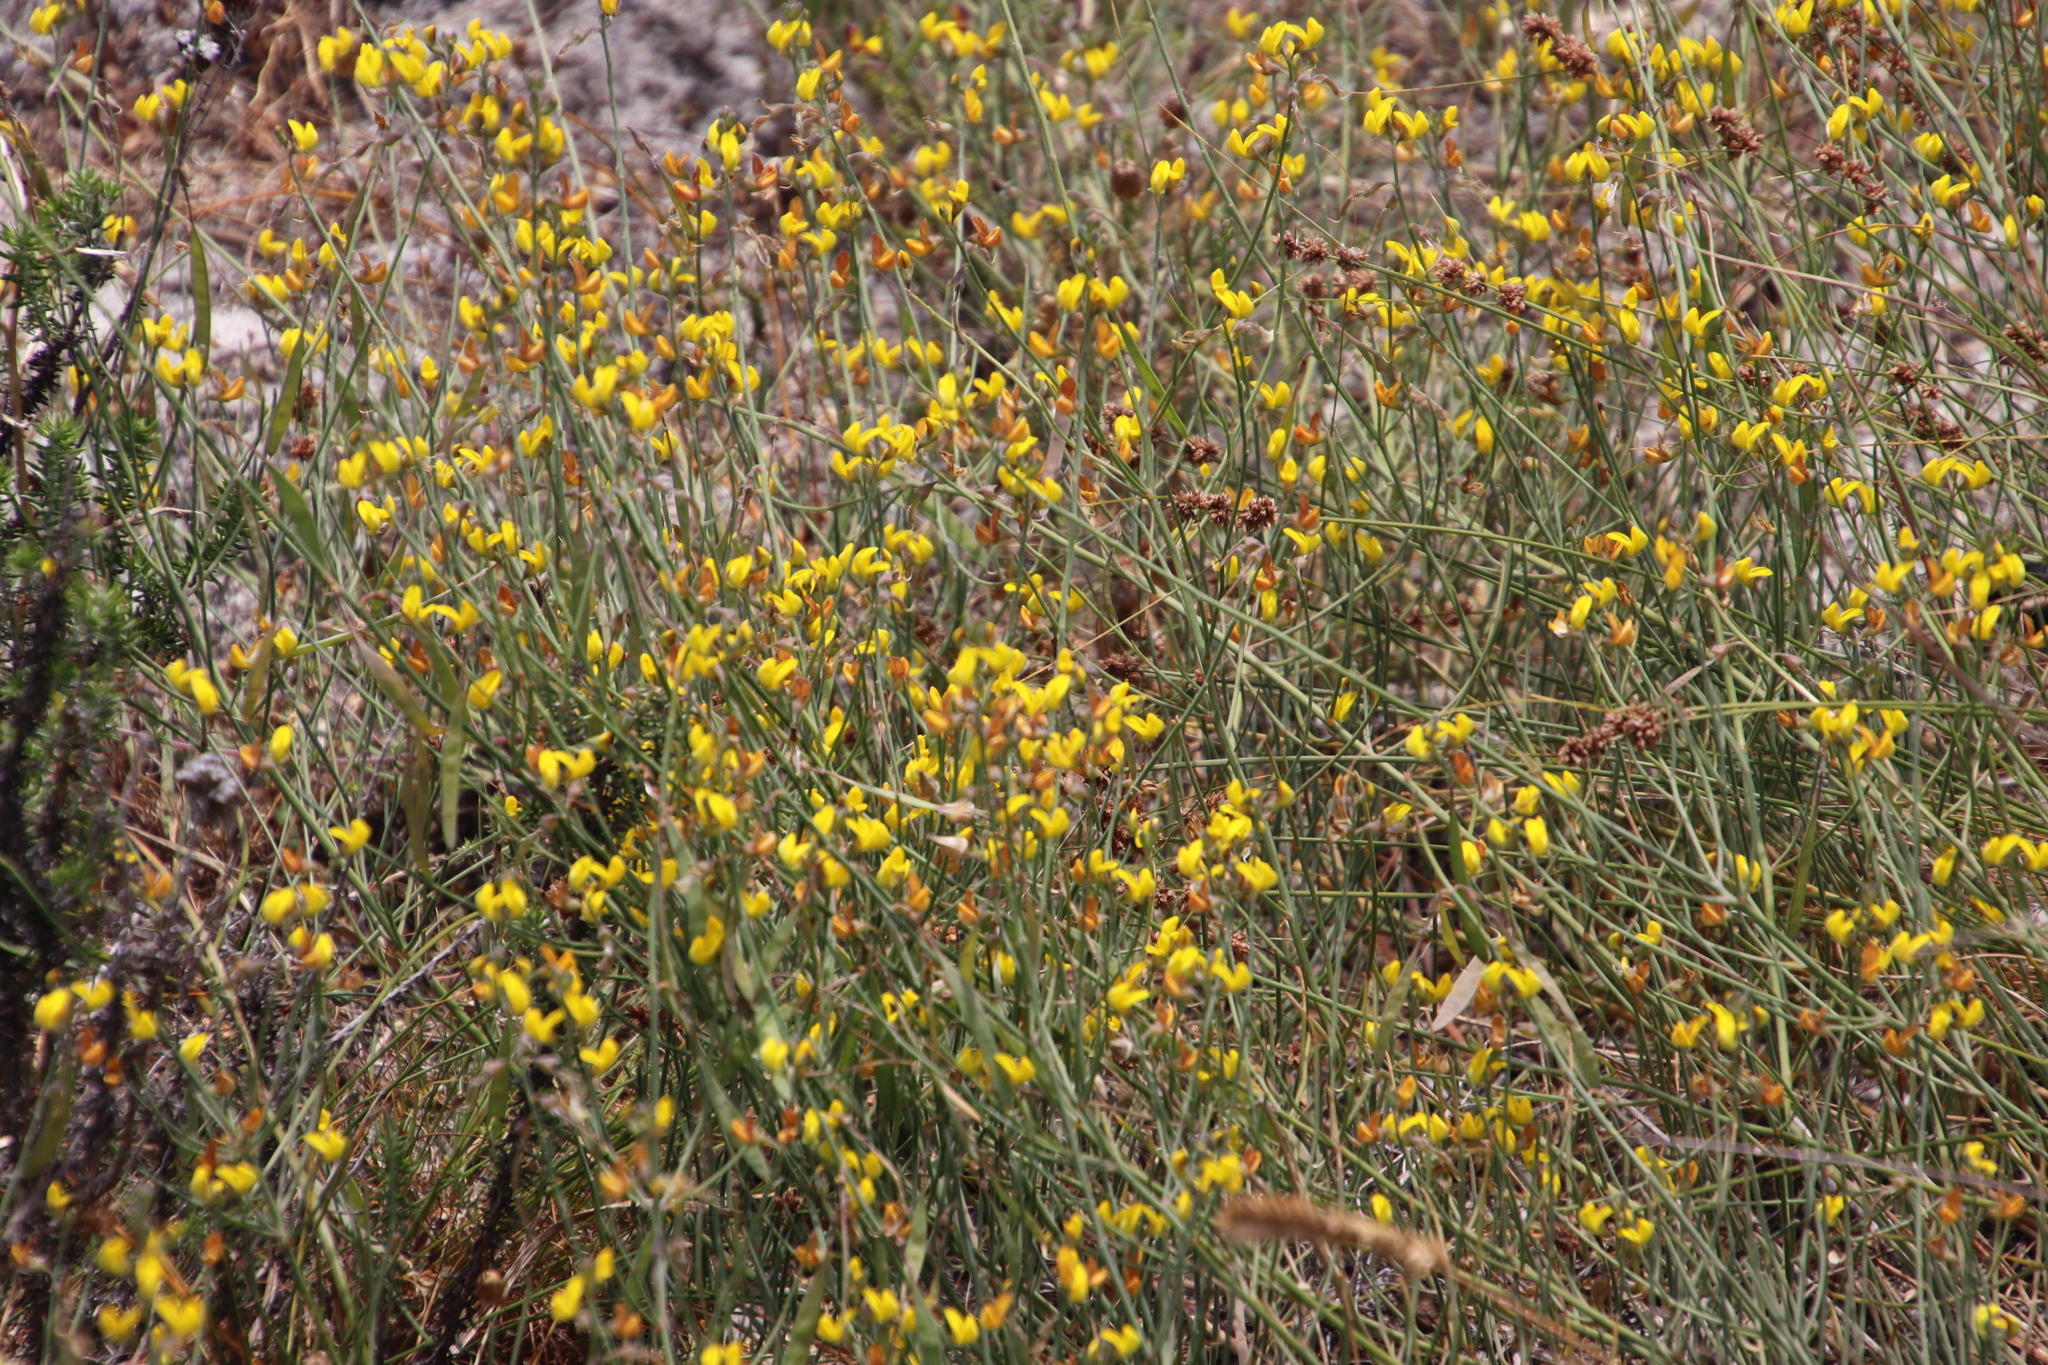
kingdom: Plantae
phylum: Tracheophyta
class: Magnoliopsida
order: Fabales
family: Fabaceae
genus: Lebeckia
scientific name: Lebeckia contaminata
